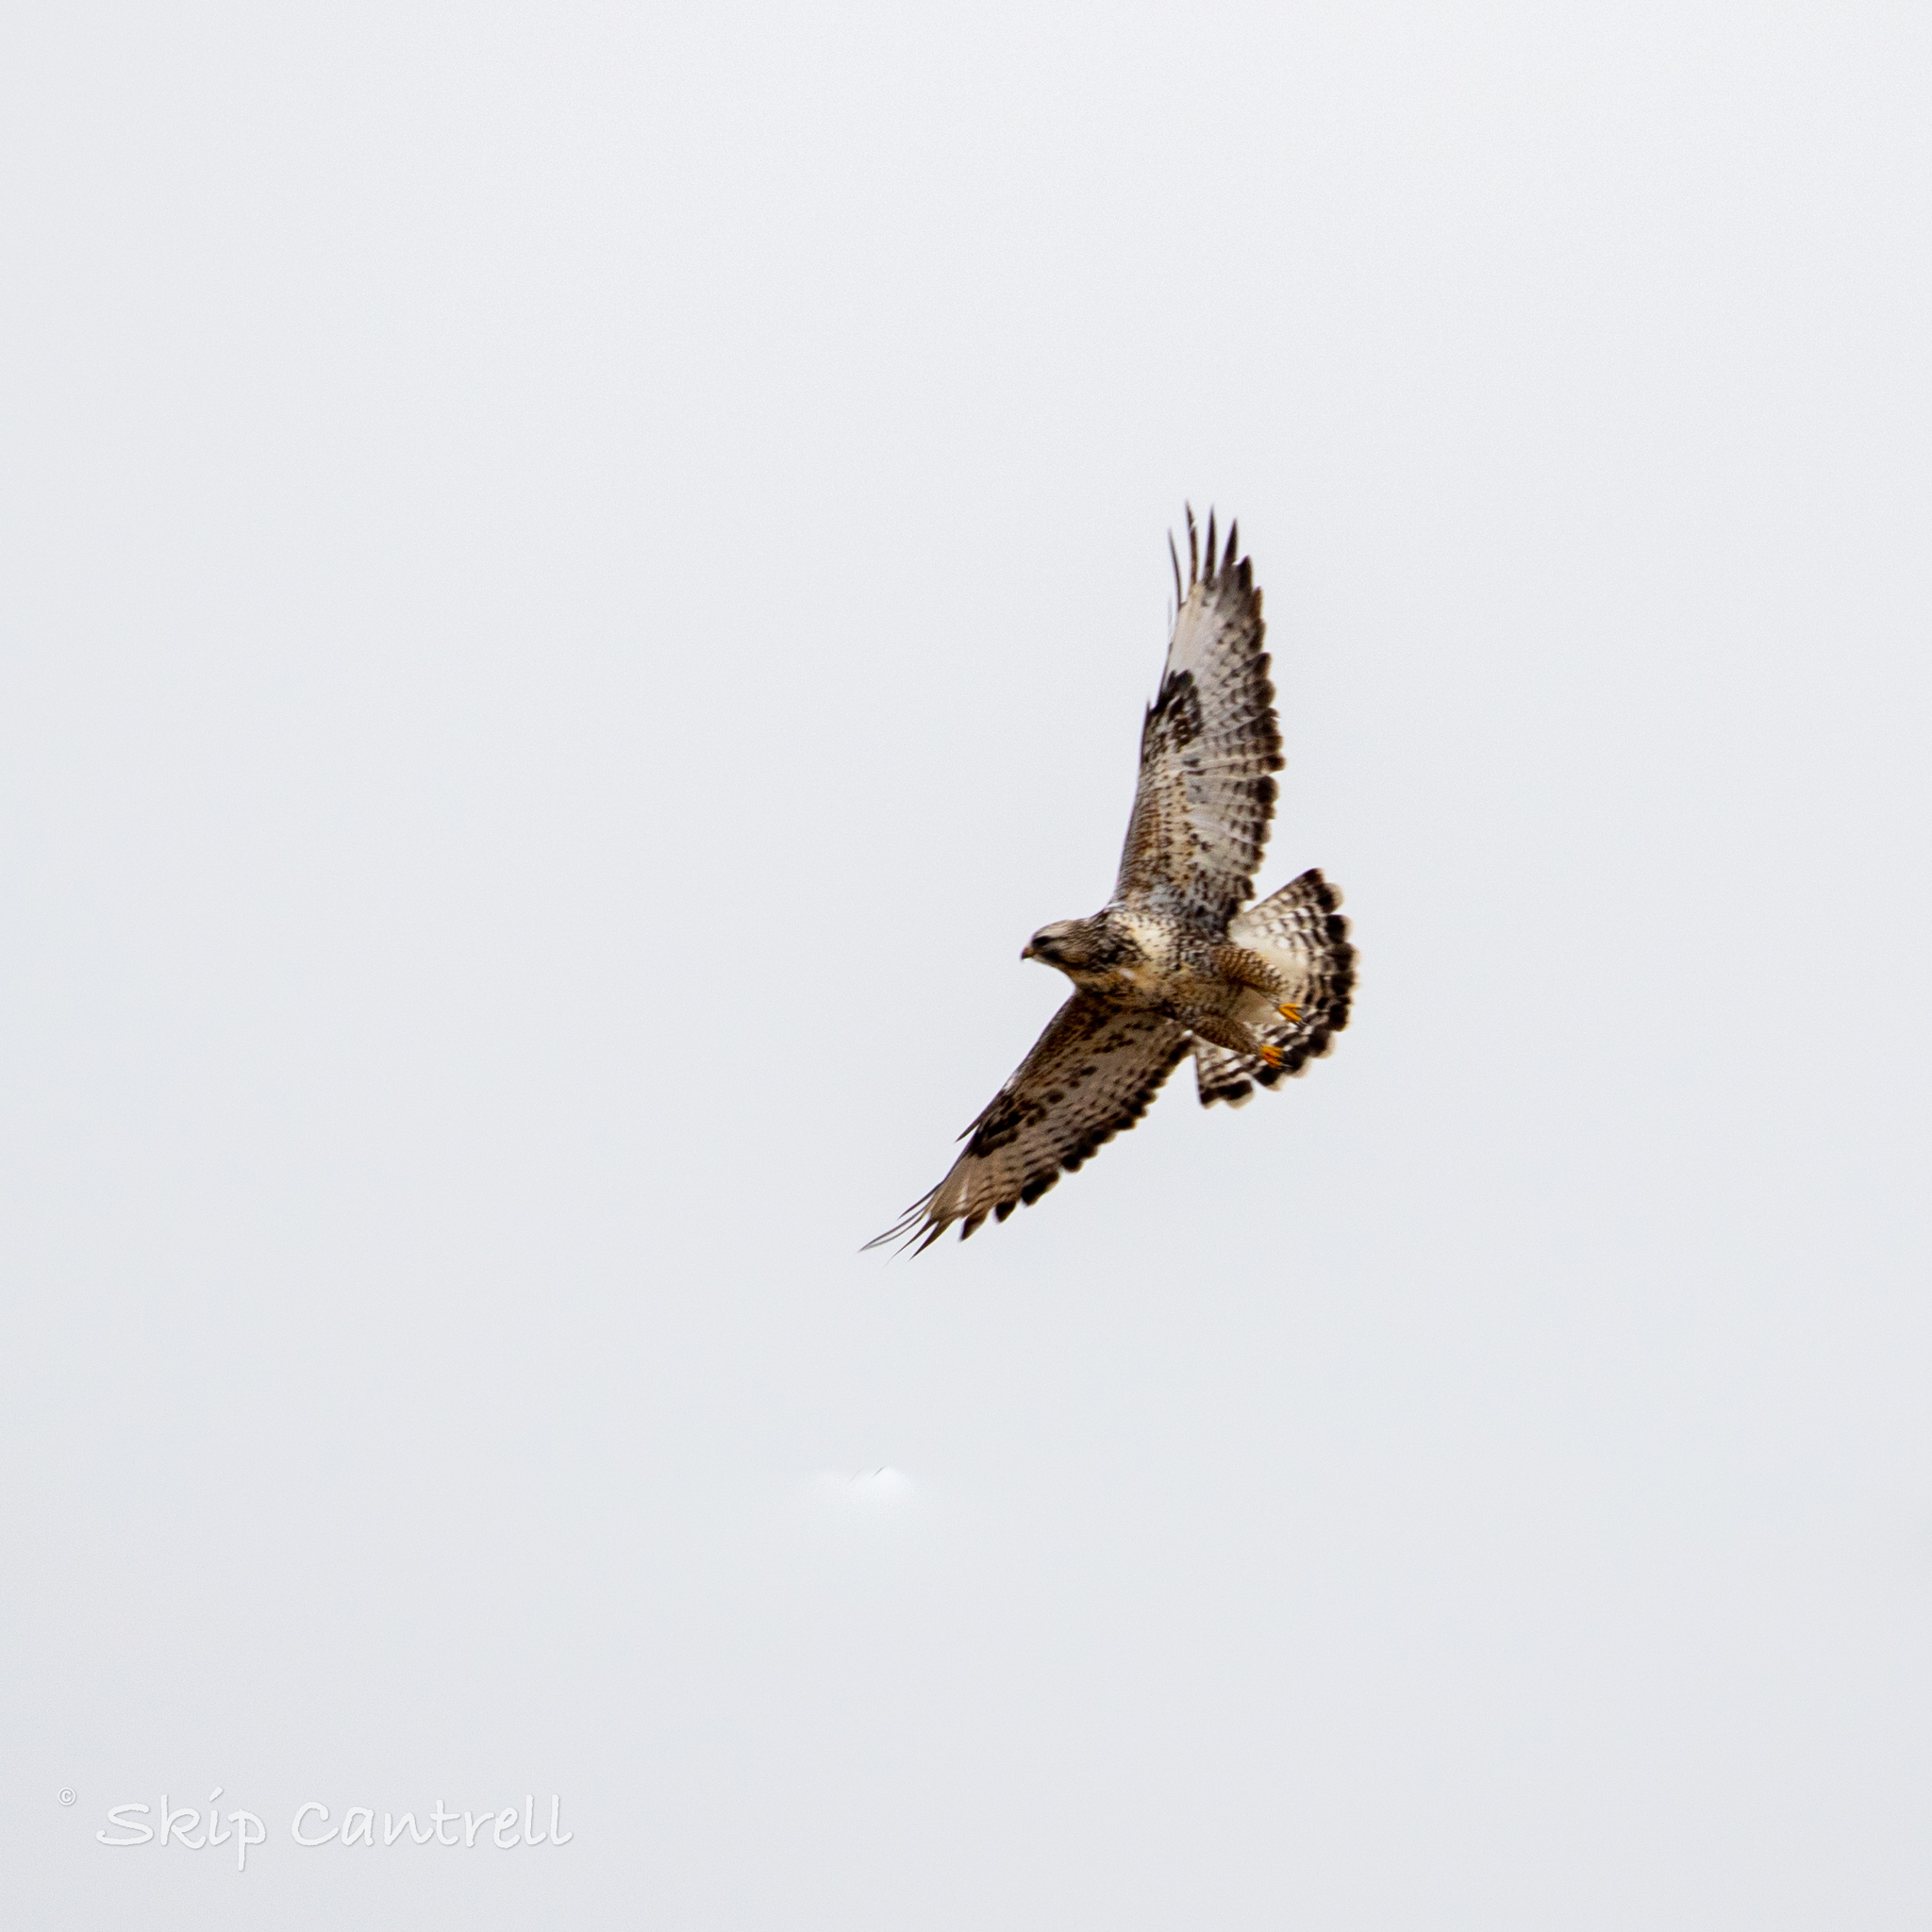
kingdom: Animalia
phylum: Chordata
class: Aves
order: Accipitriformes
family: Accipitridae
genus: Buteo
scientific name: Buteo lagopus
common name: Rough-legged buzzard
